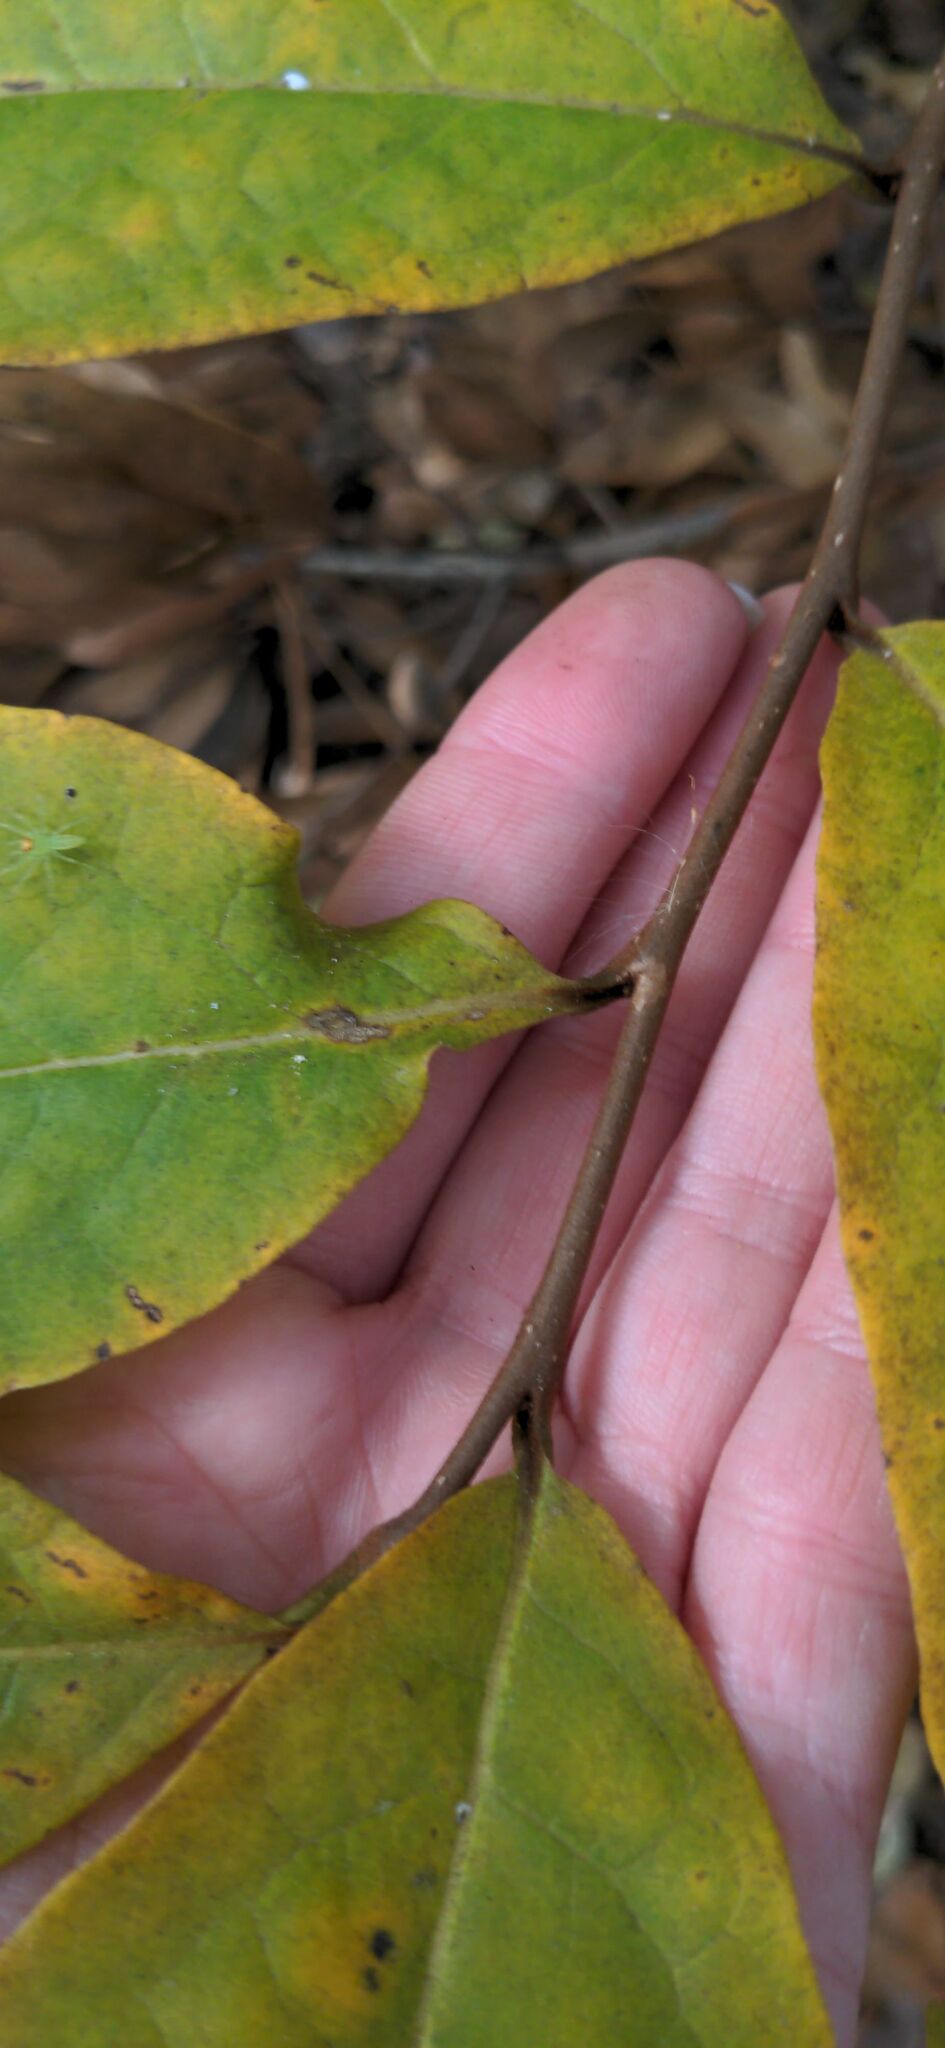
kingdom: Plantae
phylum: Tracheophyta
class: Magnoliopsida
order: Magnoliales
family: Annonaceae
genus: Asimina
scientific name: Asimina parviflora
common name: Dwarf pawpaw
